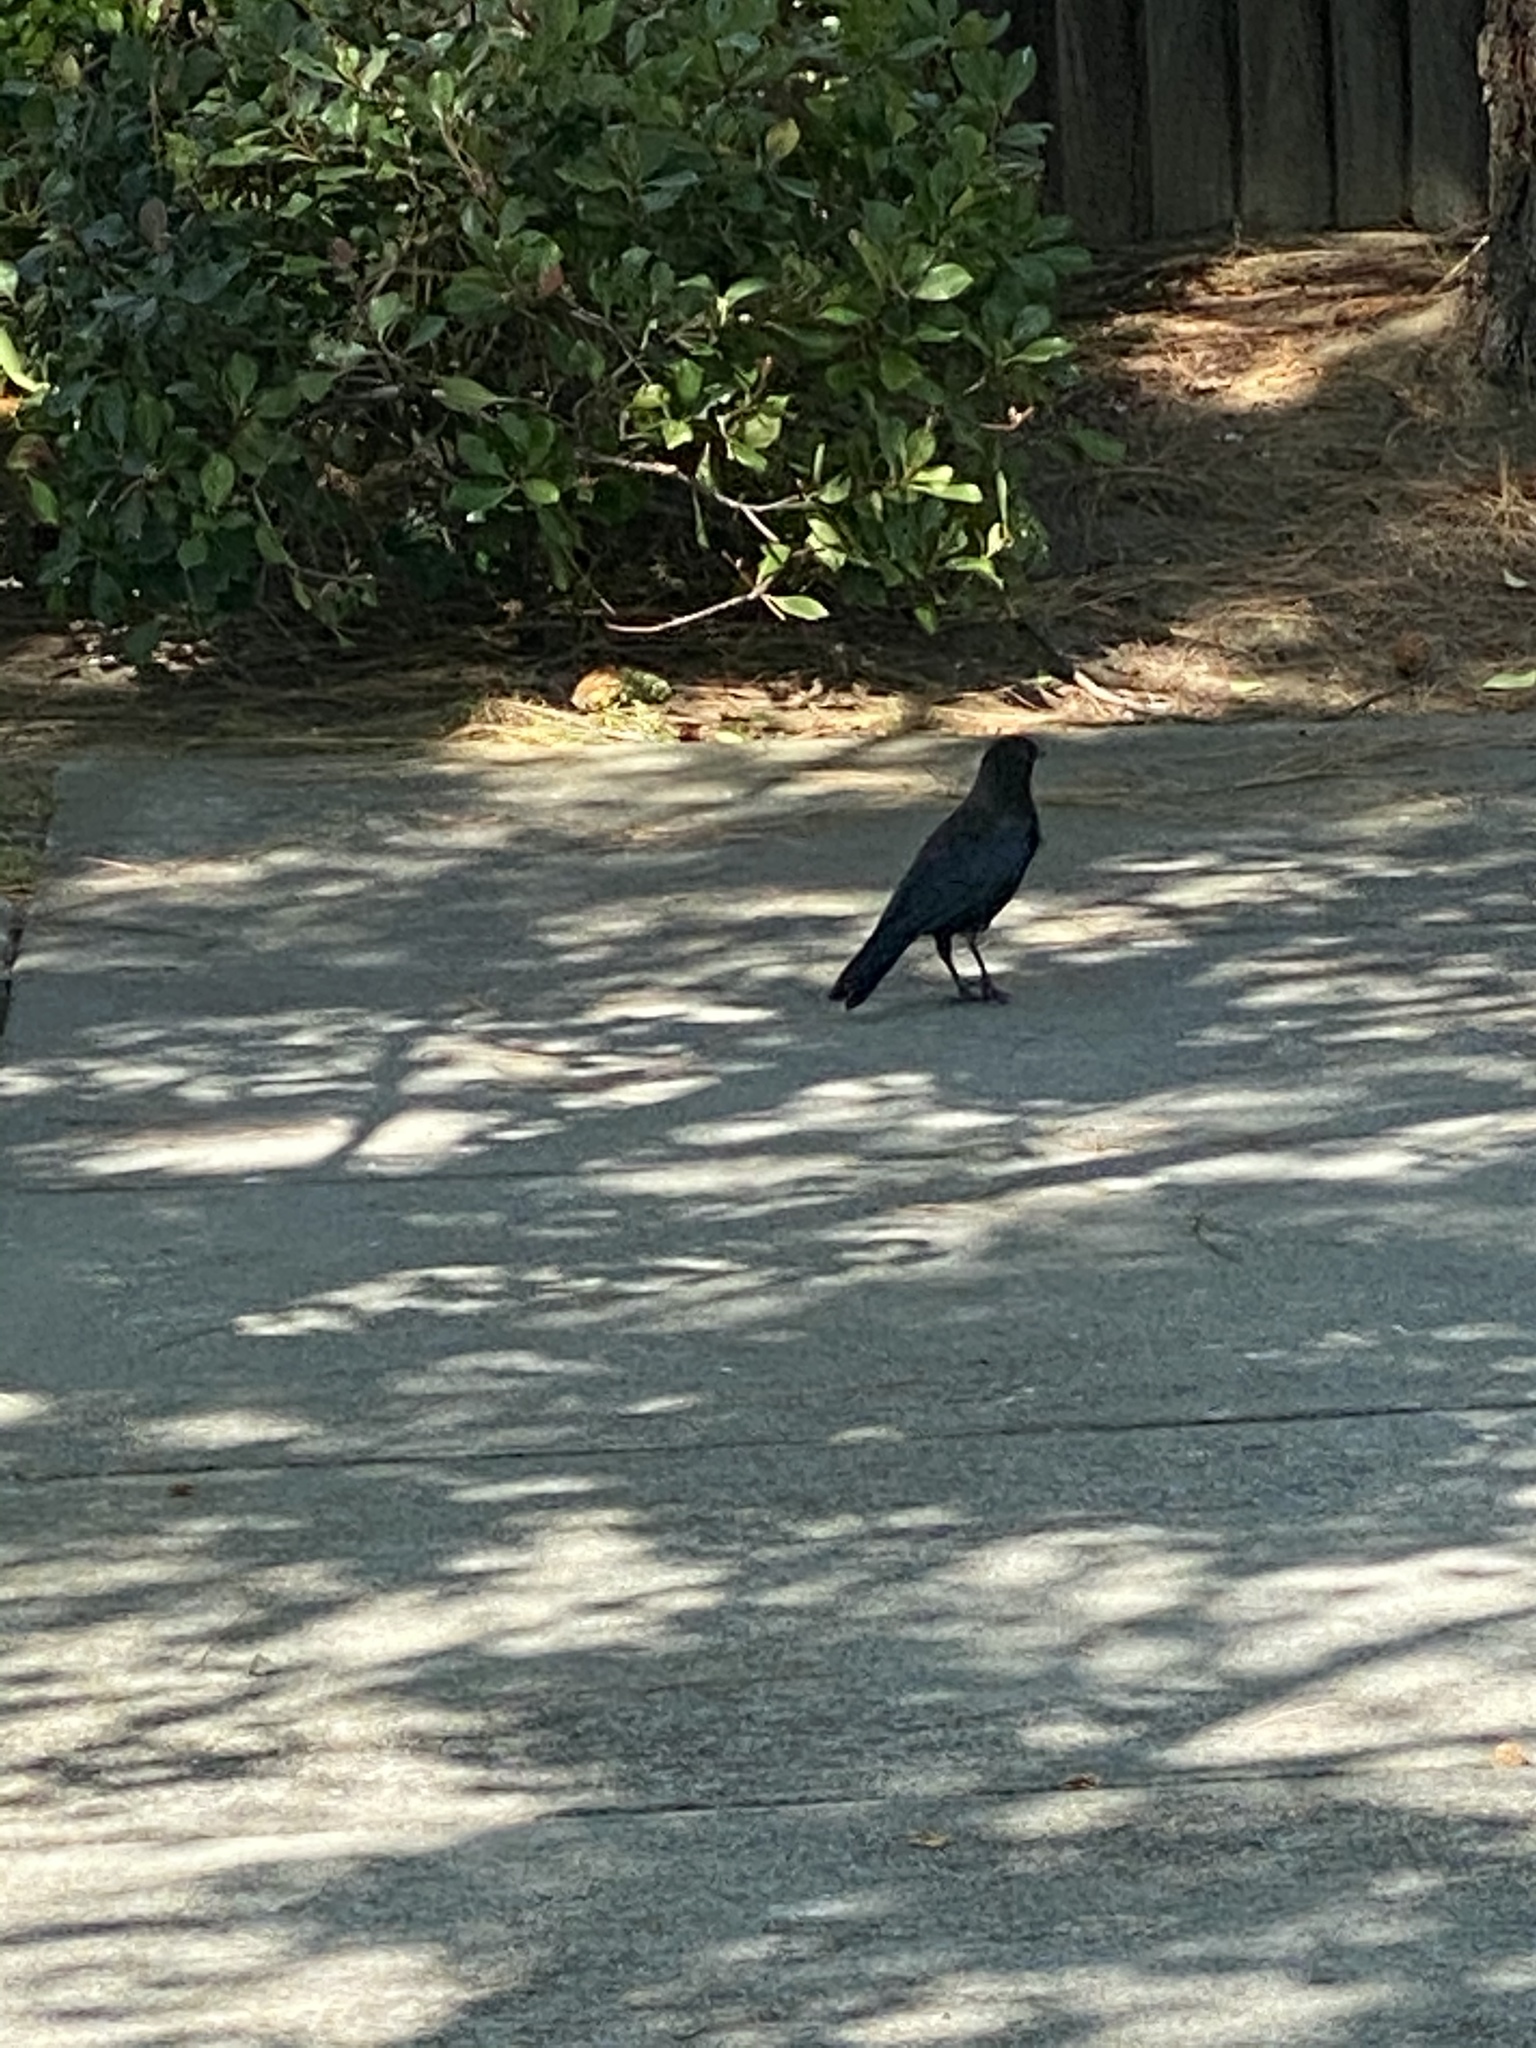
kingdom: Animalia
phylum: Chordata
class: Aves
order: Passeriformes
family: Corvidae
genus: Corvus
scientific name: Corvus brachyrhynchos
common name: American crow
